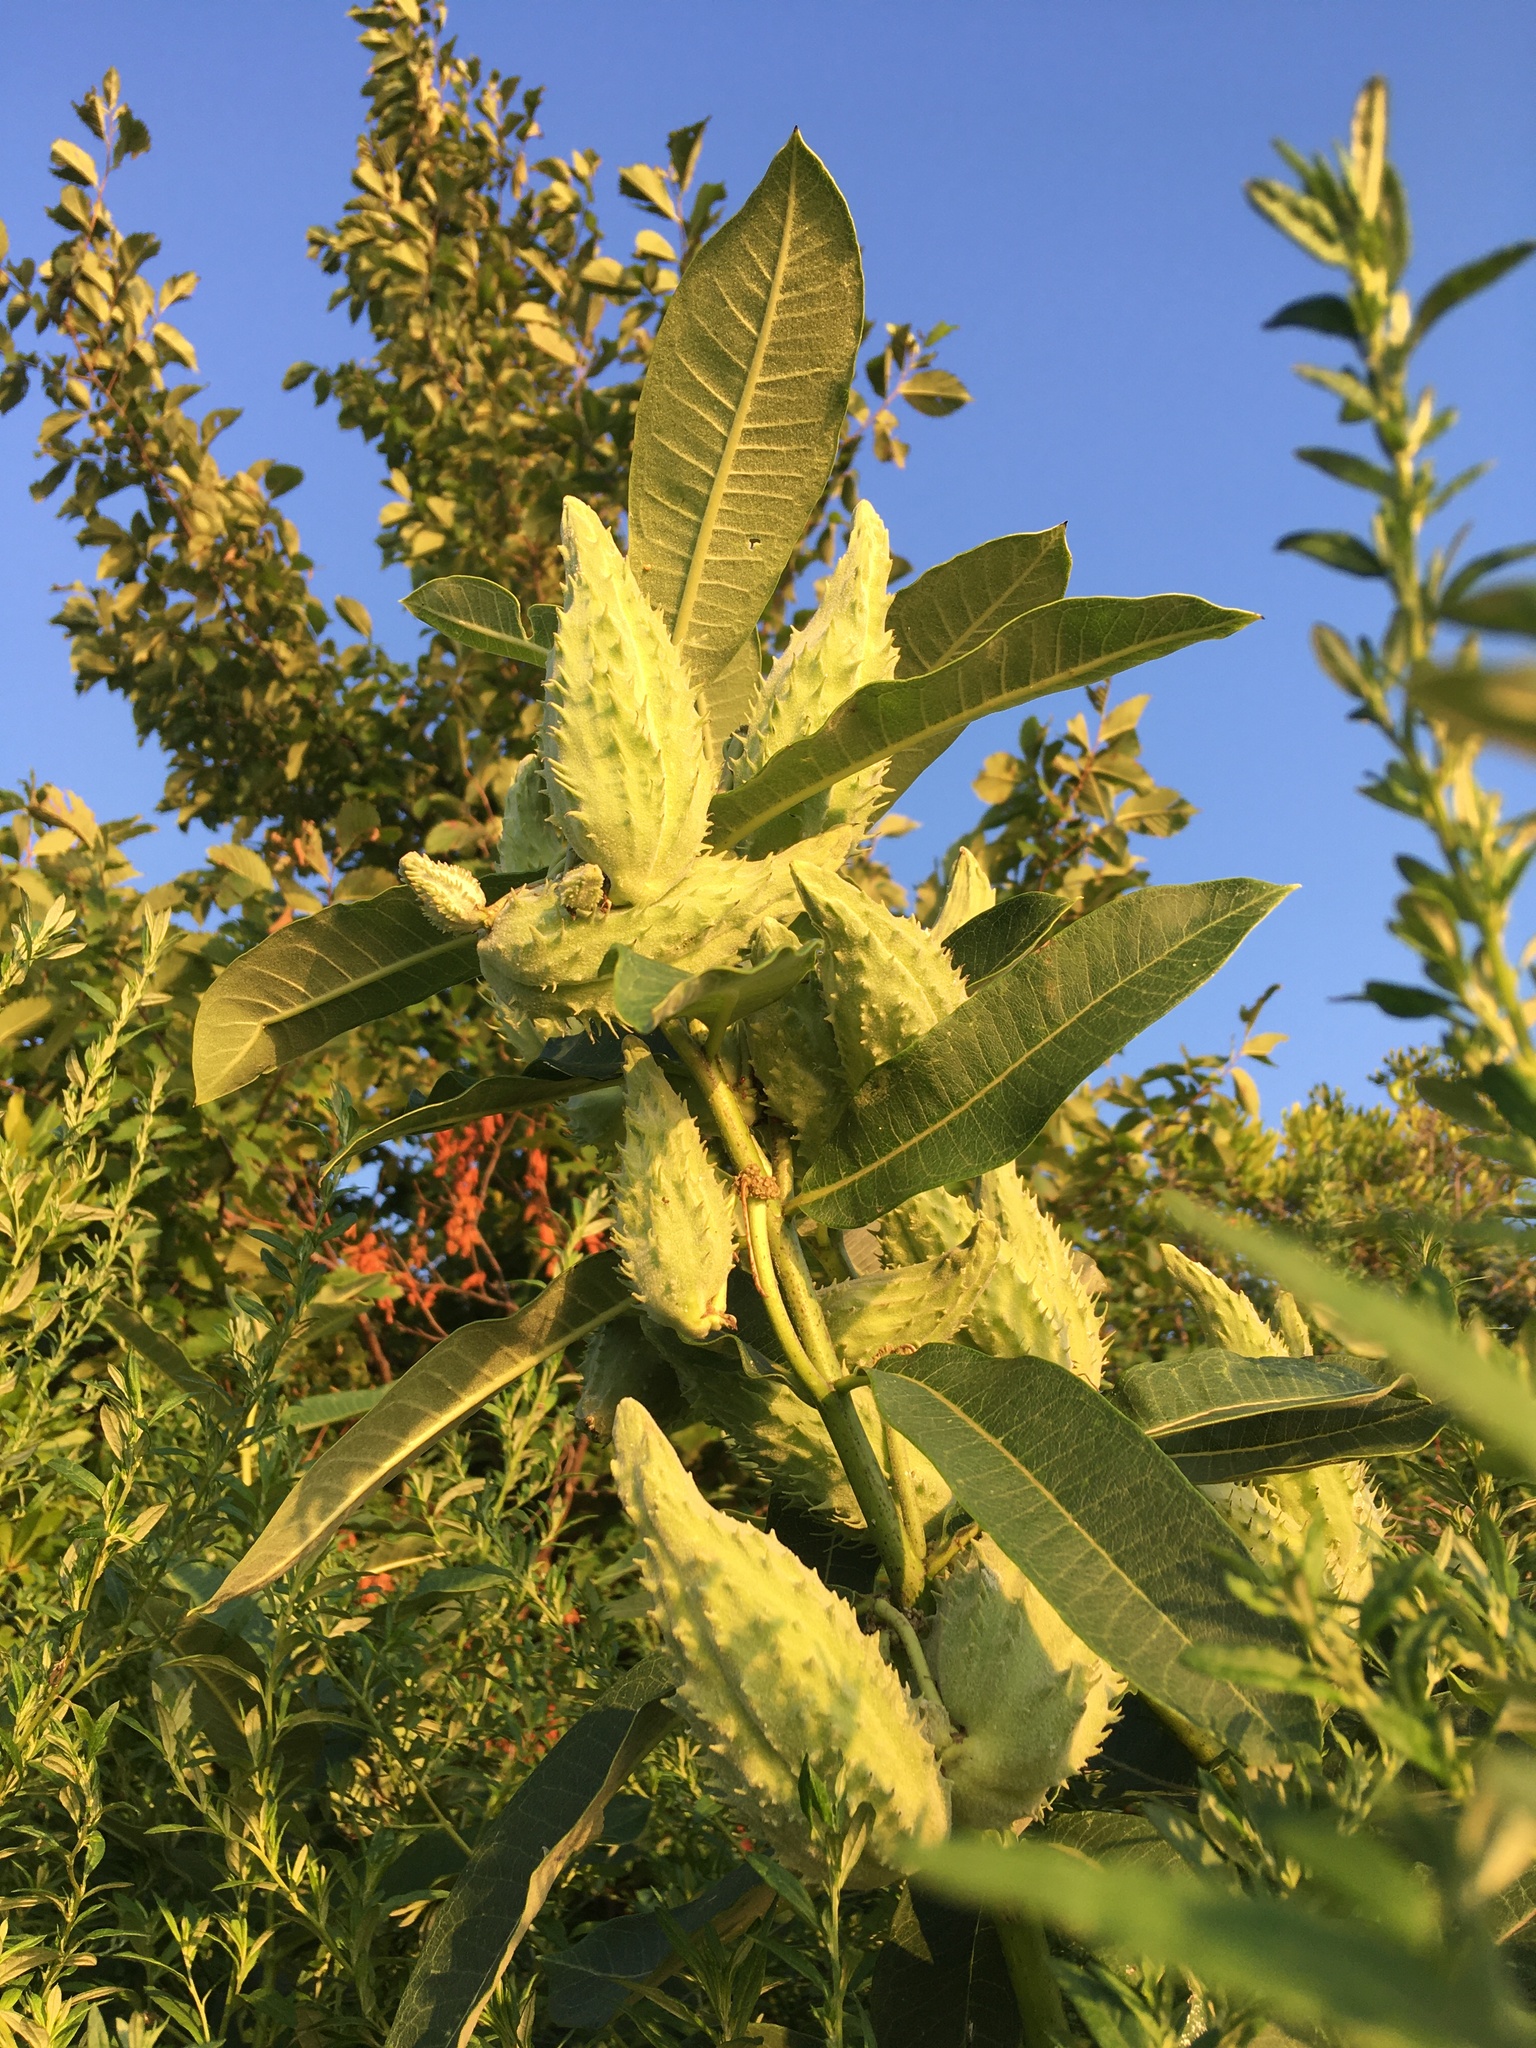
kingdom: Plantae
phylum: Tracheophyta
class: Magnoliopsida
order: Gentianales
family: Apocynaceae
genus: Asclepias
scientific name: Asclepias syriaca
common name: Common milkweed
